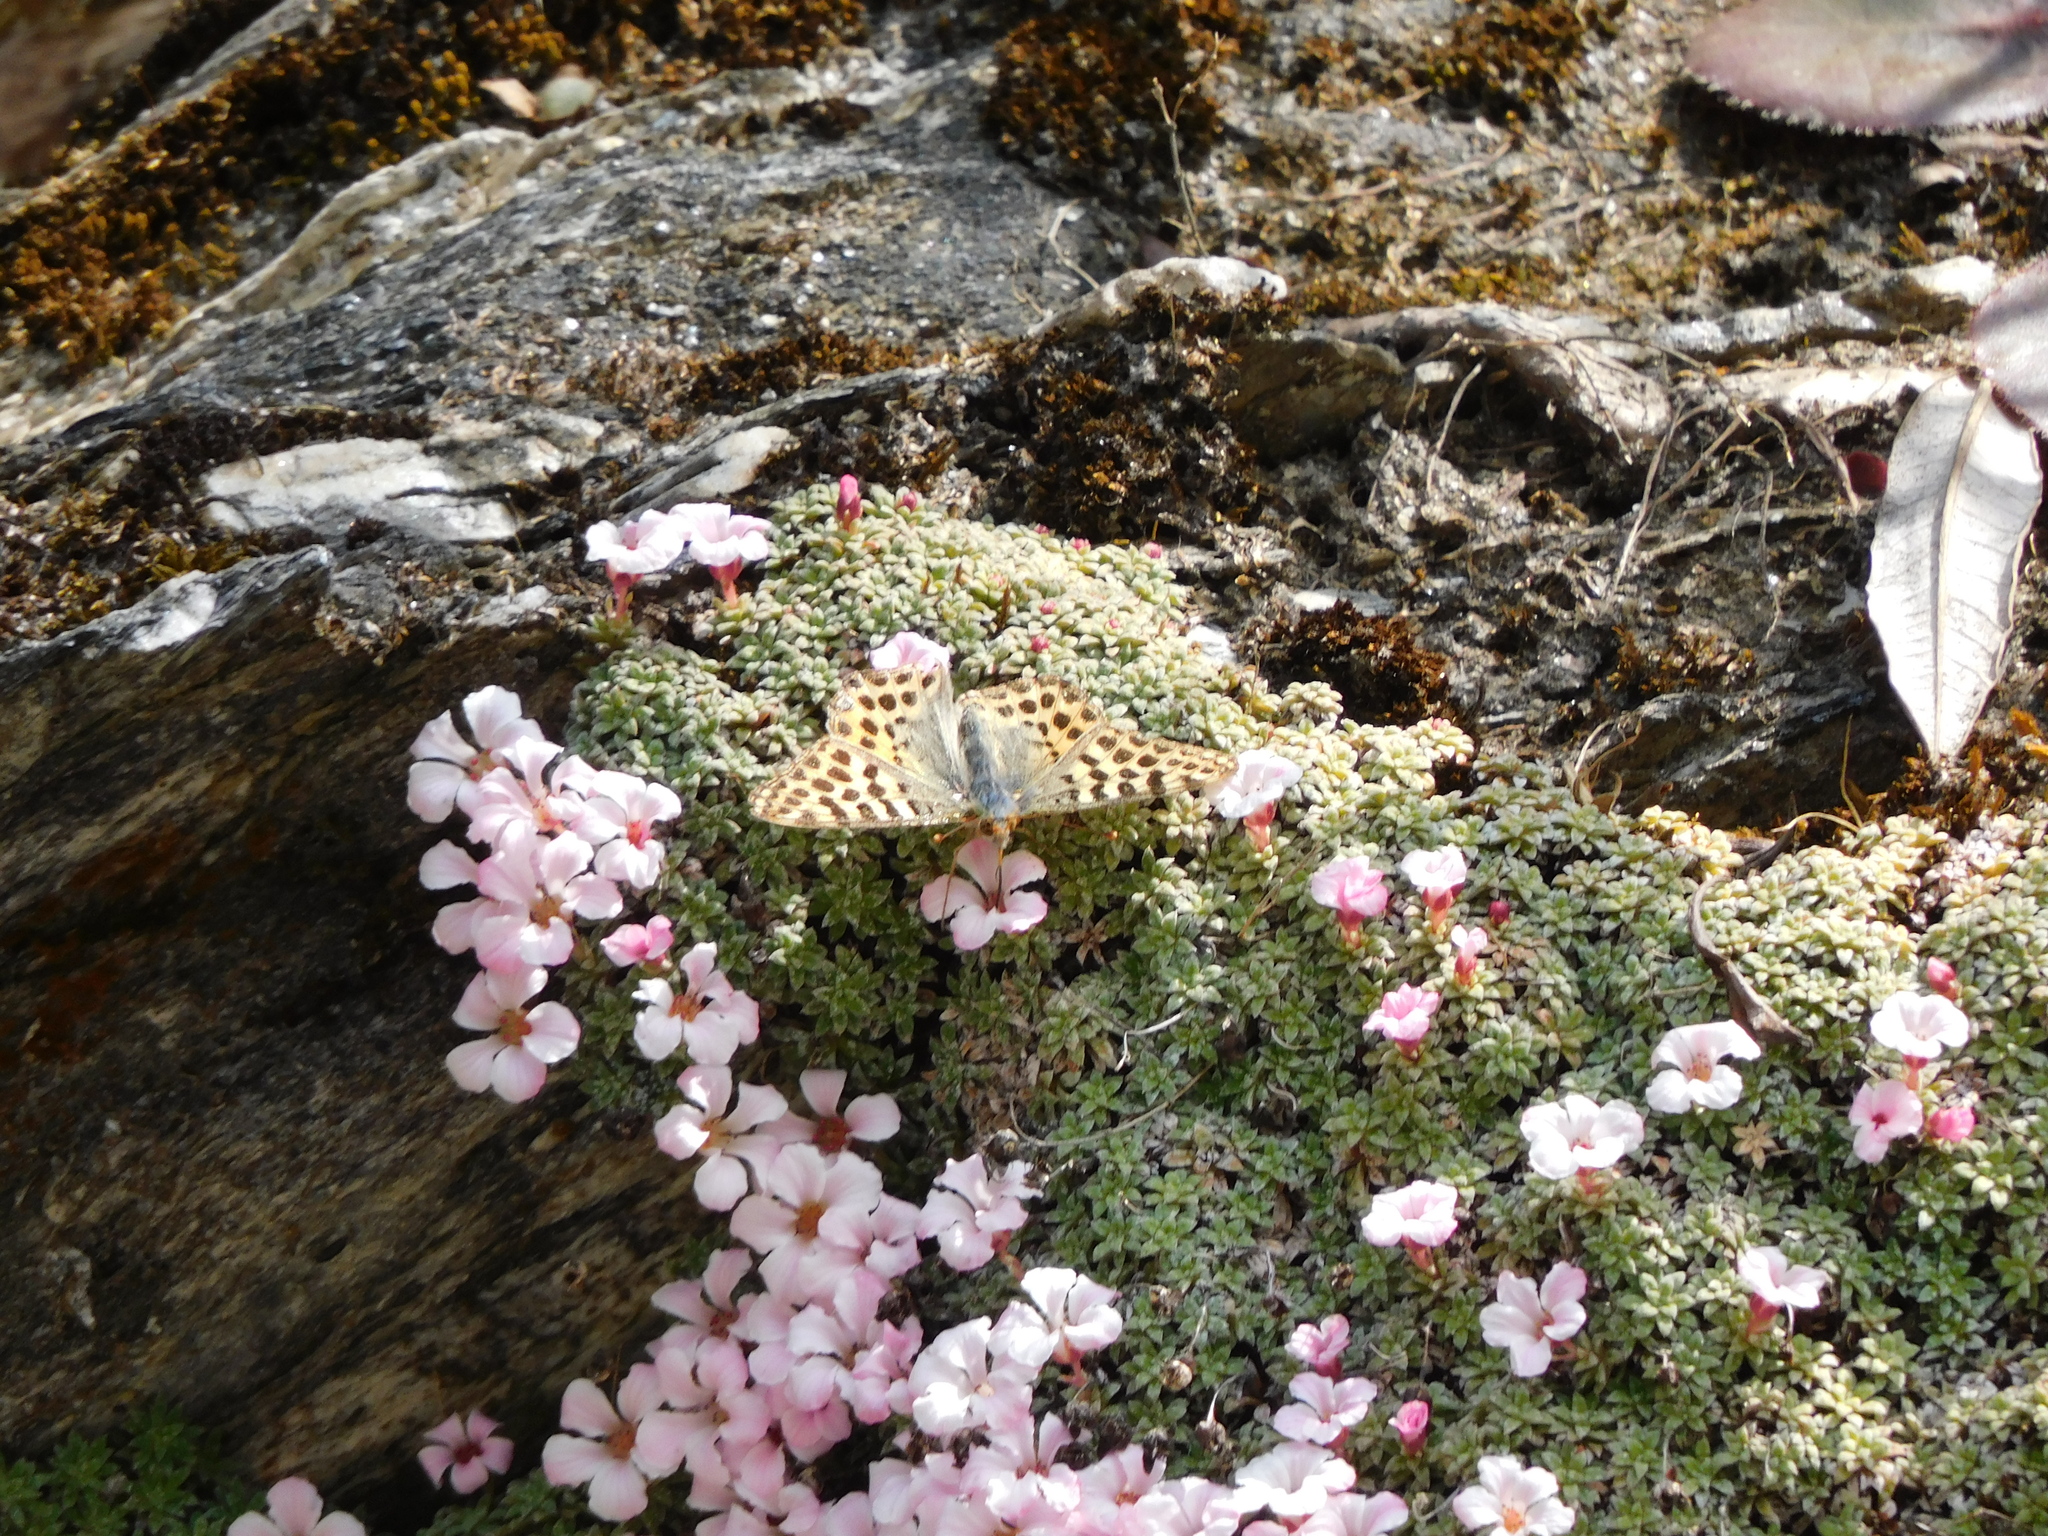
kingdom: Animalia
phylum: Arthropoda
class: Insecta
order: Lepidoptera
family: Nymphalidae
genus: Issoria
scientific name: Issoria
